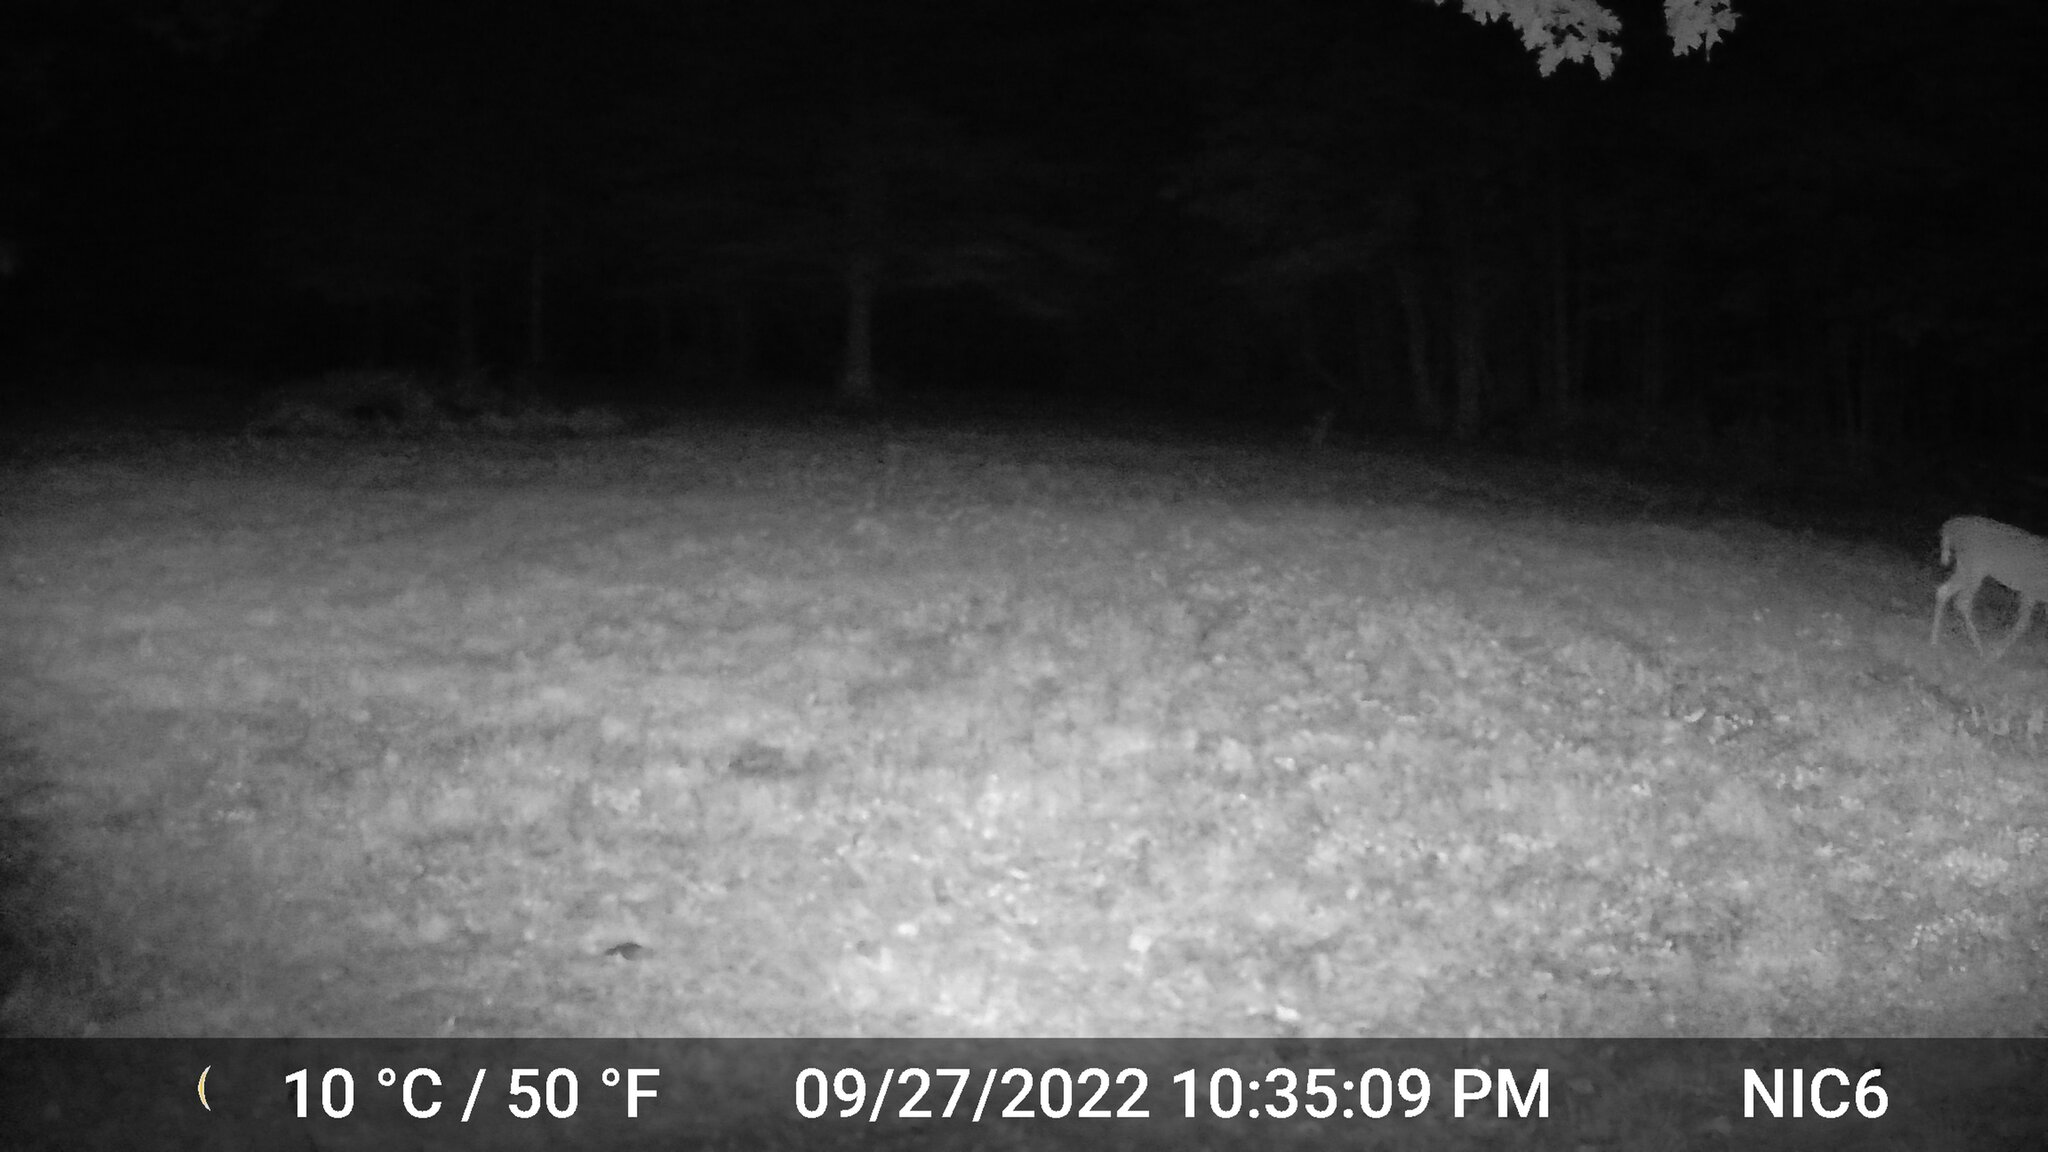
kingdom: Animalia
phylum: Chordata
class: Mammalia
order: Artiodactyla
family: Cervidae
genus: Odocoileus
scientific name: Odocoileus virginianus
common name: White-tailed deer
